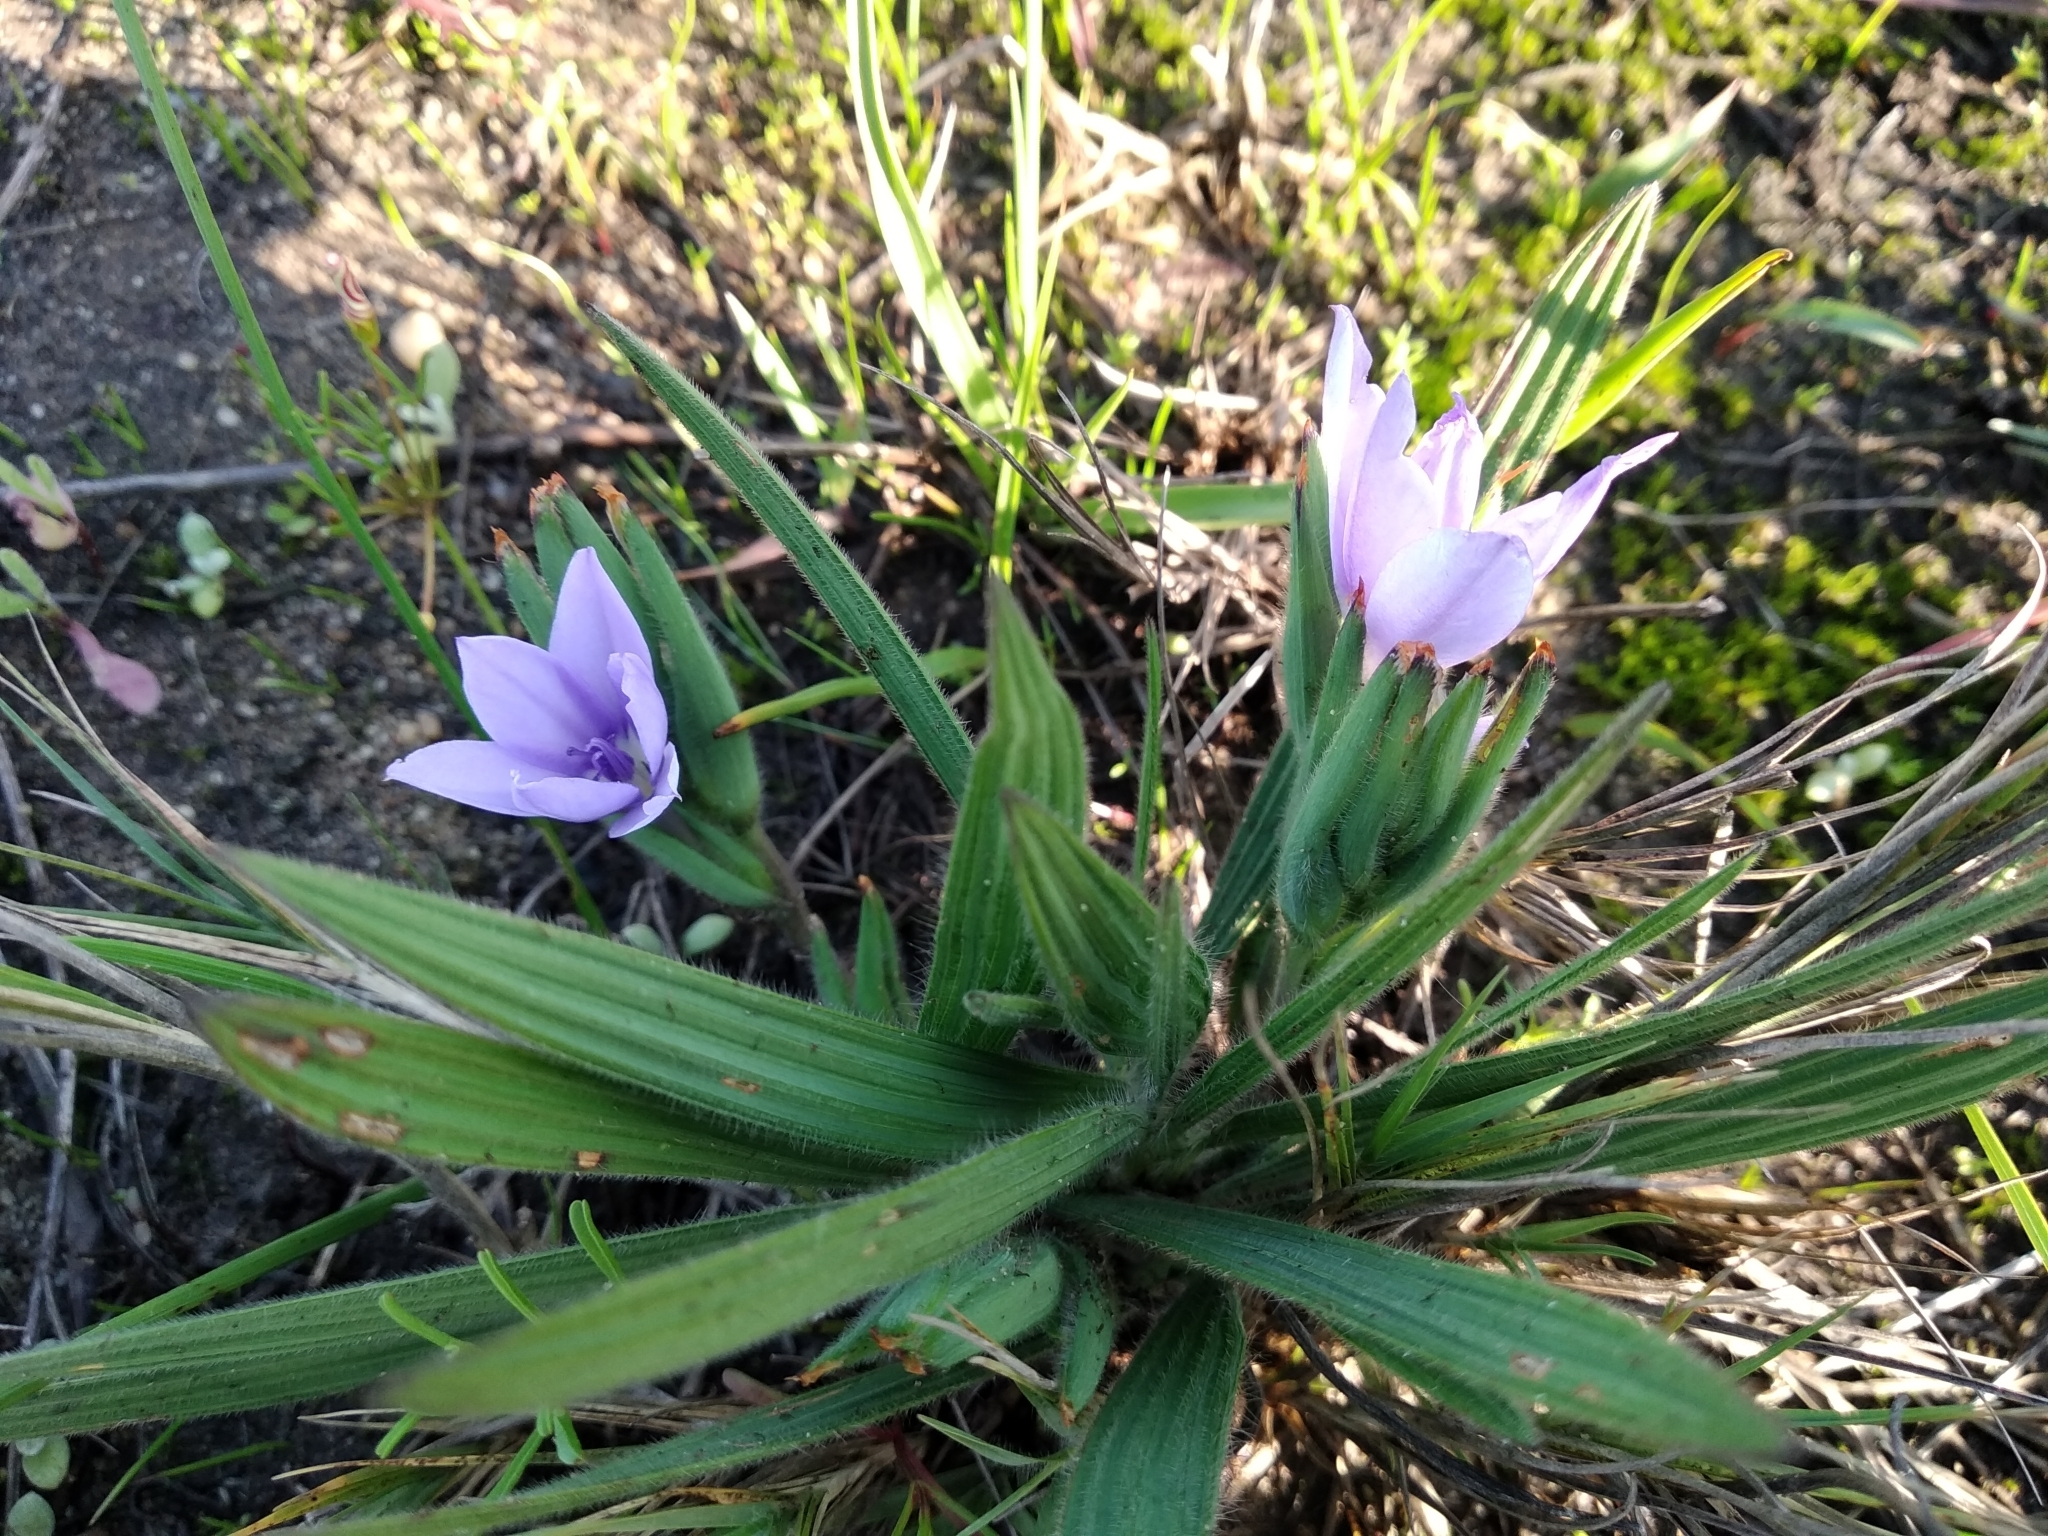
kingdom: Plantae
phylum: Tracheophyta
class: Liliopsida
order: Asparagales
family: Iridaceae
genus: Babiana
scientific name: Babiana villosula
